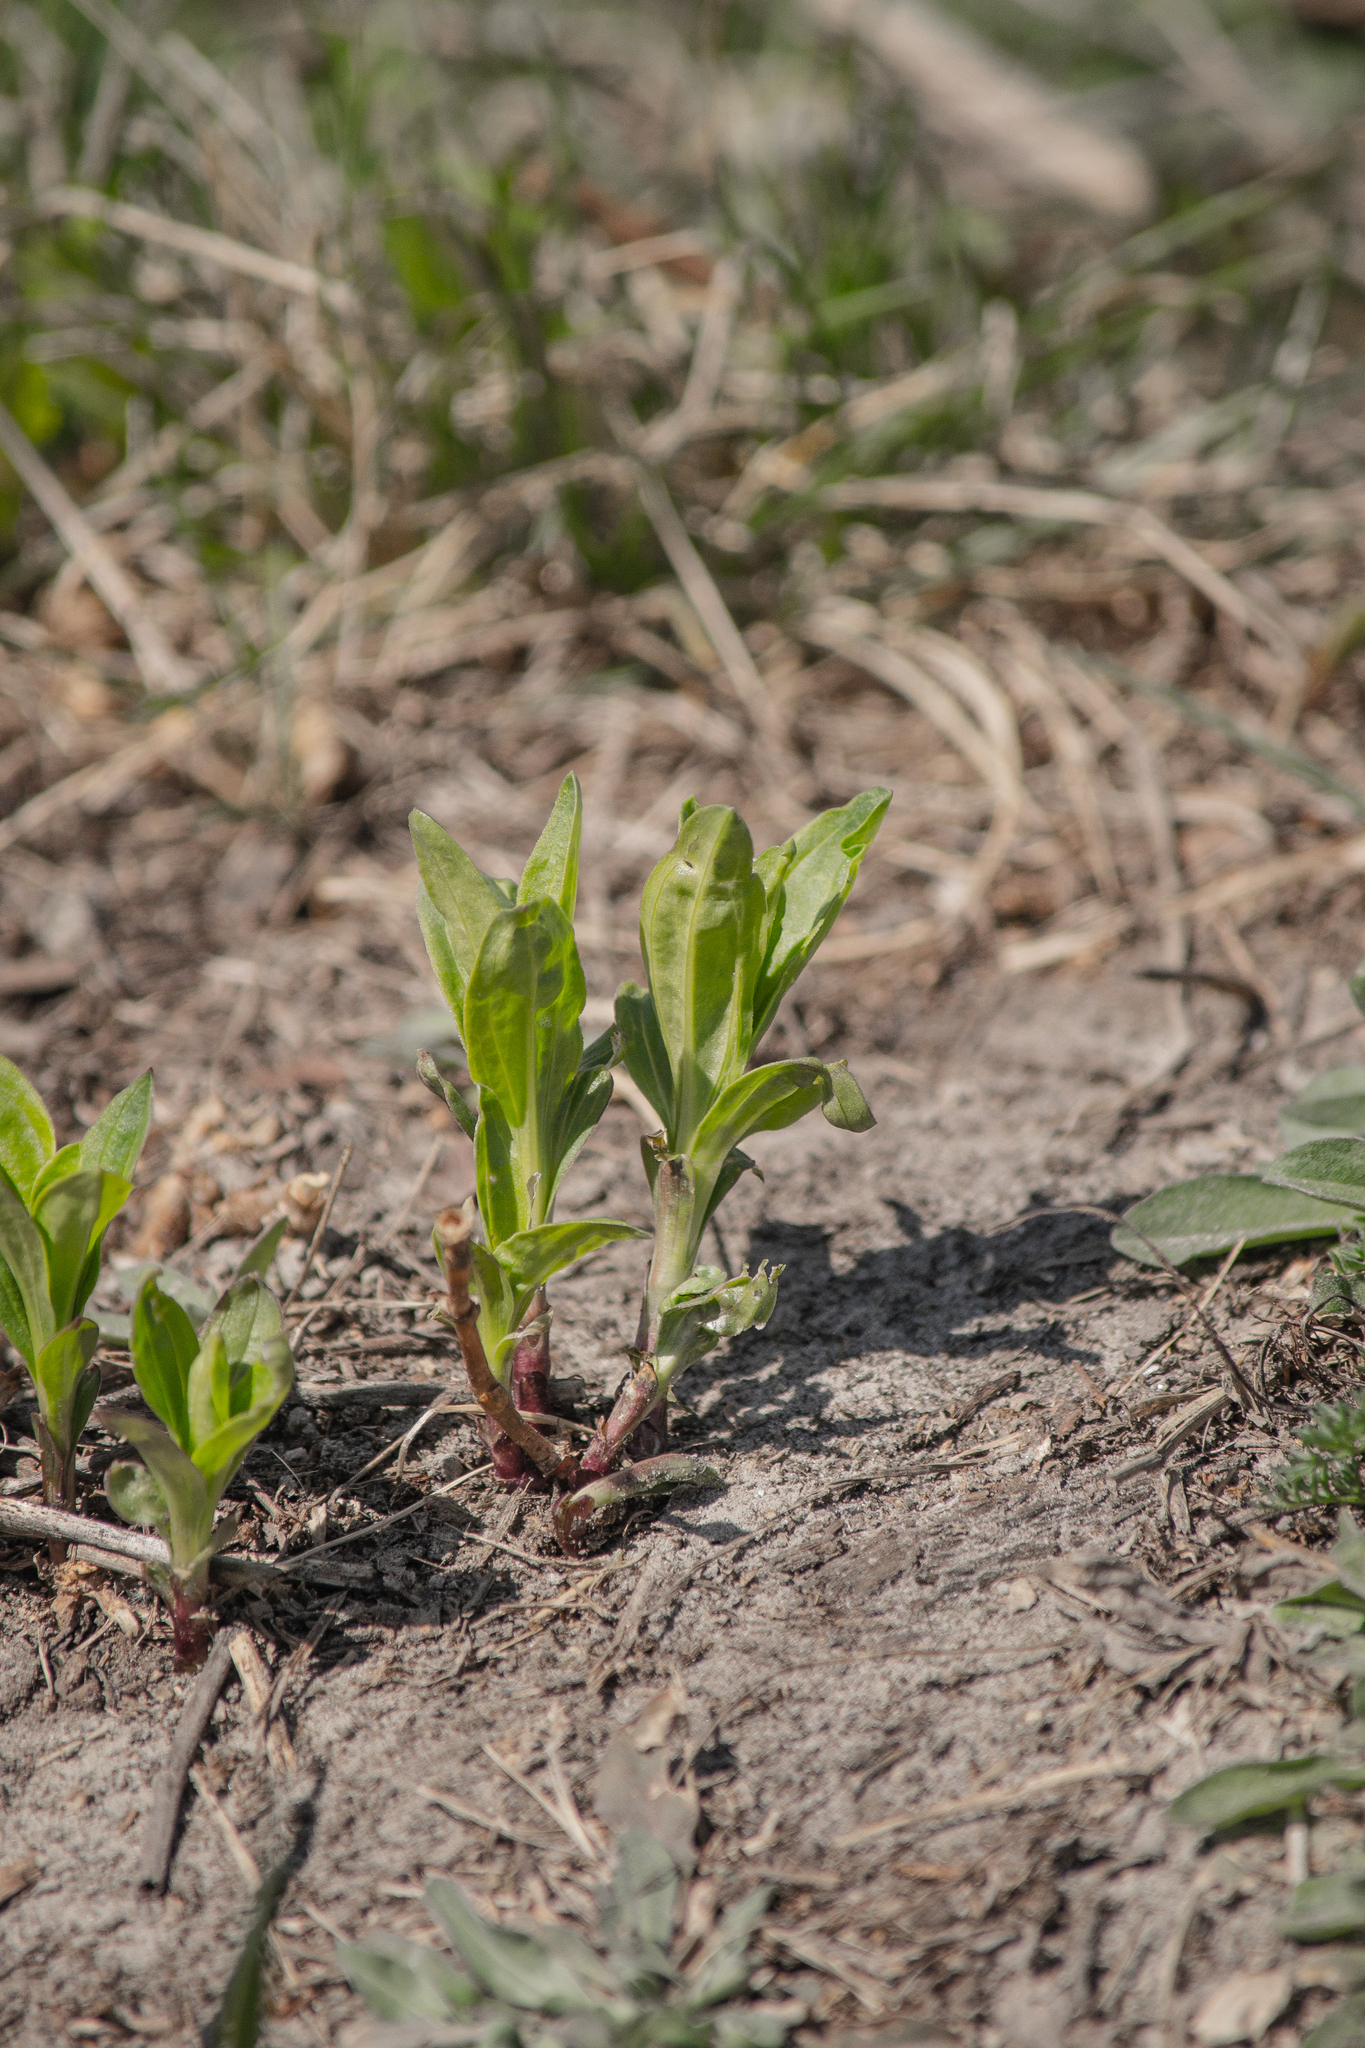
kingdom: Plantae
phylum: Tracheophyta
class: Magnoliopsida
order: Caryophyllales
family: Caryophyllaceae
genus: Saponaria
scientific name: Saponaria officinalis
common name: Soapwort
